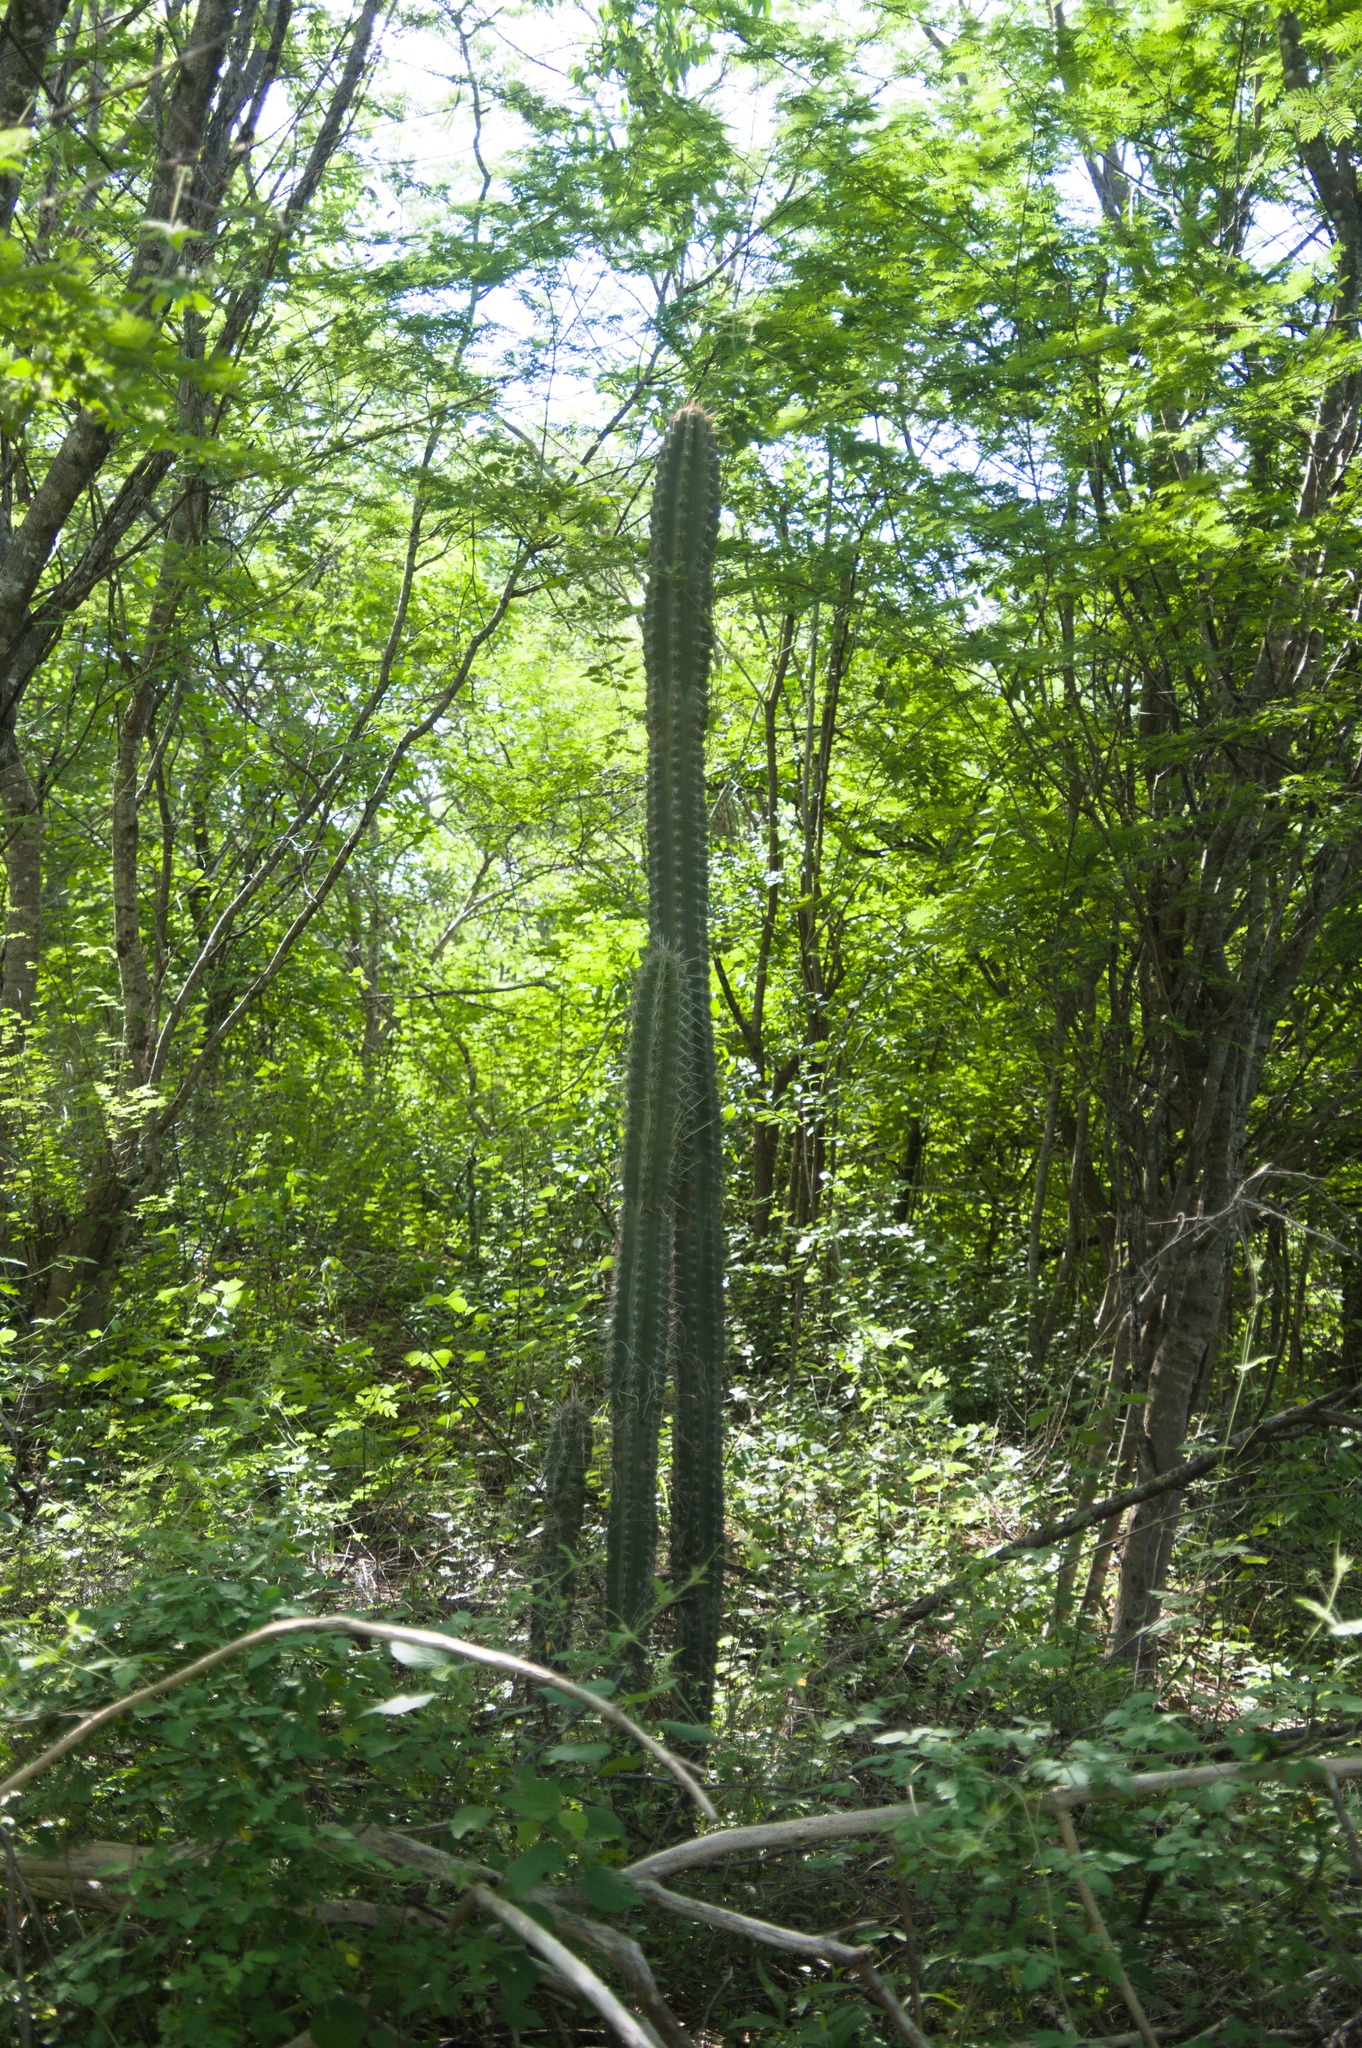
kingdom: Plantae
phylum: Tracheophyta
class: Magnoliopsida
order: Caryophyllales
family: Cactaceae
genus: Stenocereus
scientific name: Stenocereus griseus
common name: Tall candelabra cactus
